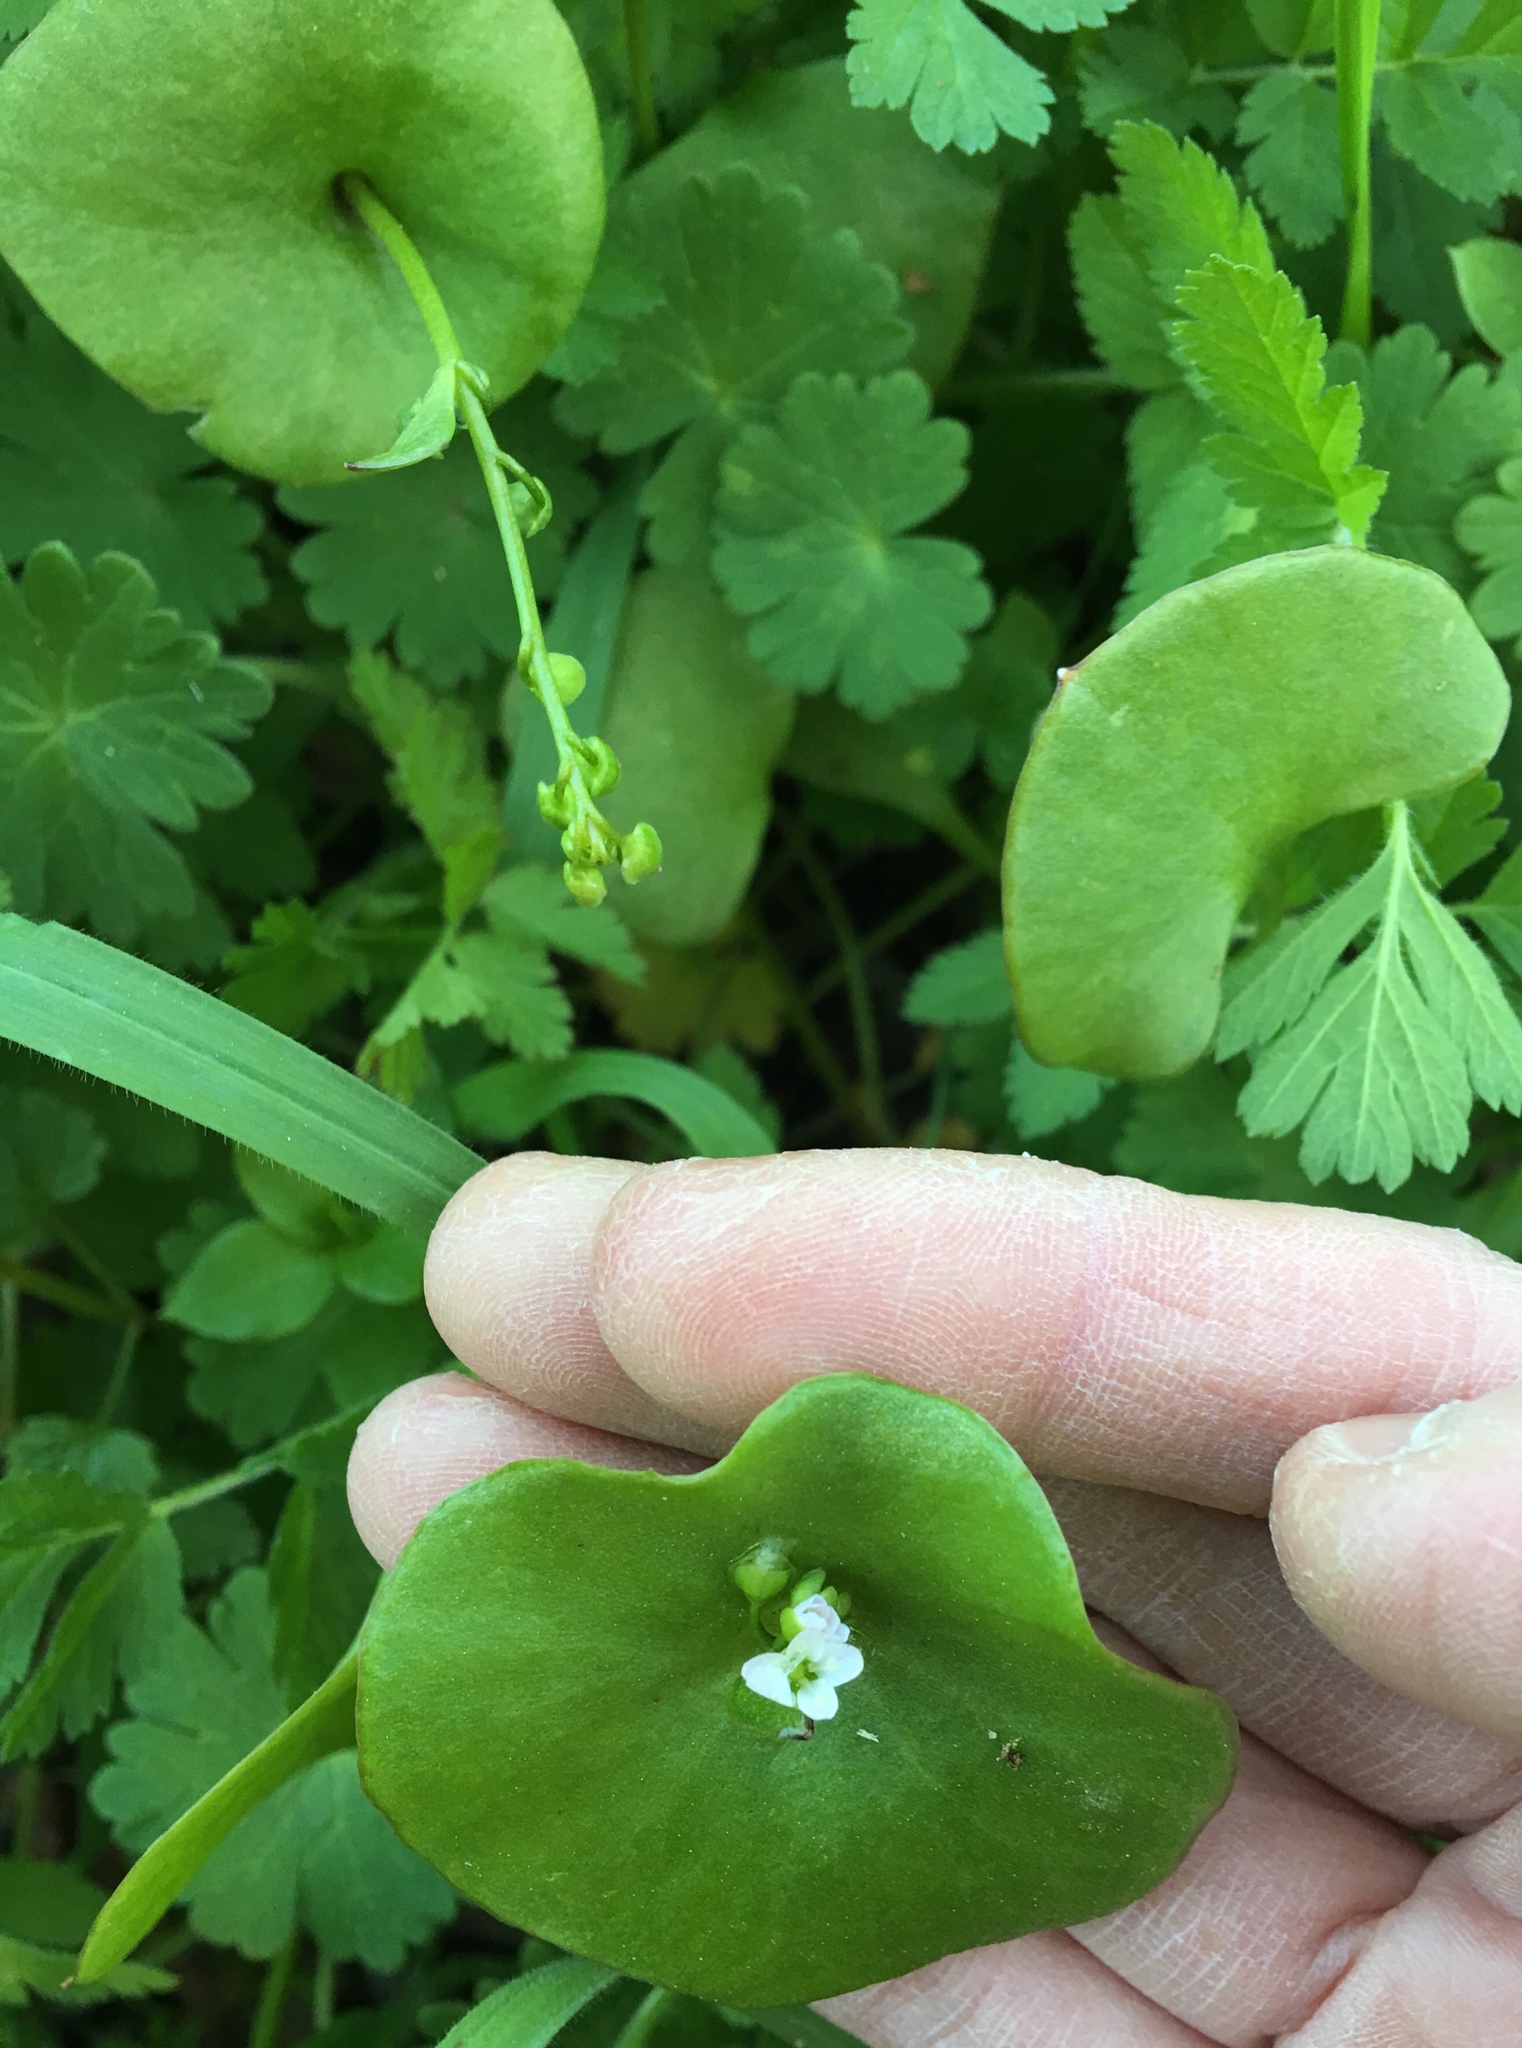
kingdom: Plantae
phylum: Tracheophyta
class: Magnoliopsida
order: Caryophyllales
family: Montiaceae
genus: Claytonia
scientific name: Claytonia perfoliata
